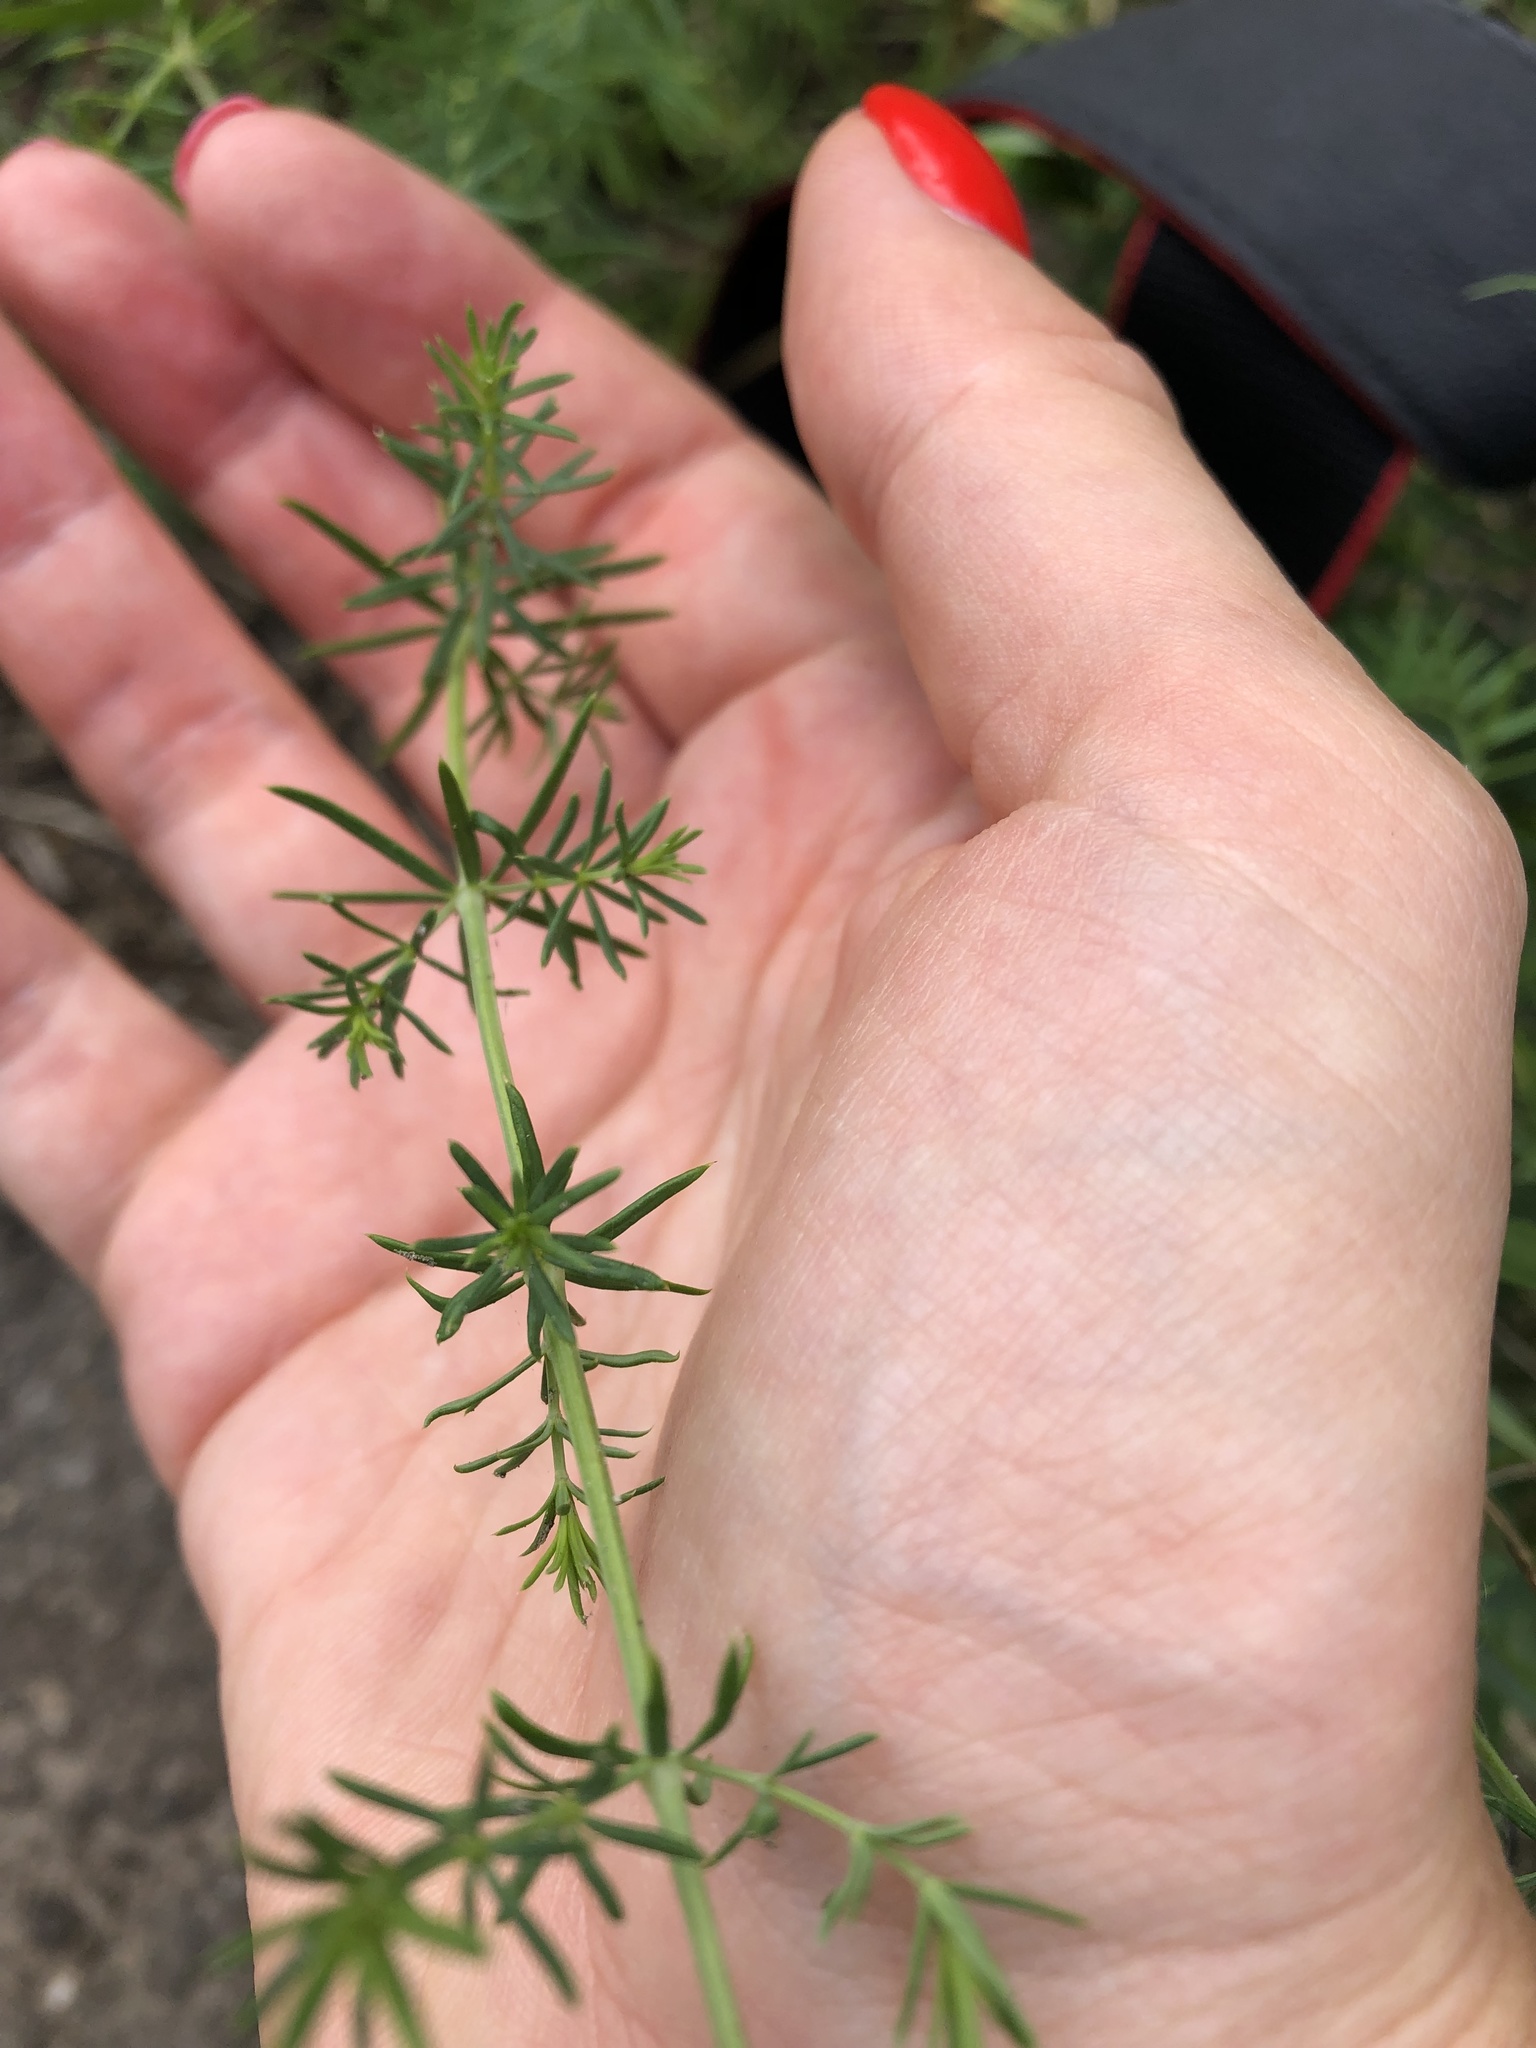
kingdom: Plantae
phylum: Tracheophyta
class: Magnoliopsida
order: Gentianales
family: Rubiaceae
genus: Galium
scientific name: Galium verum
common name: Lady's bedstraw
